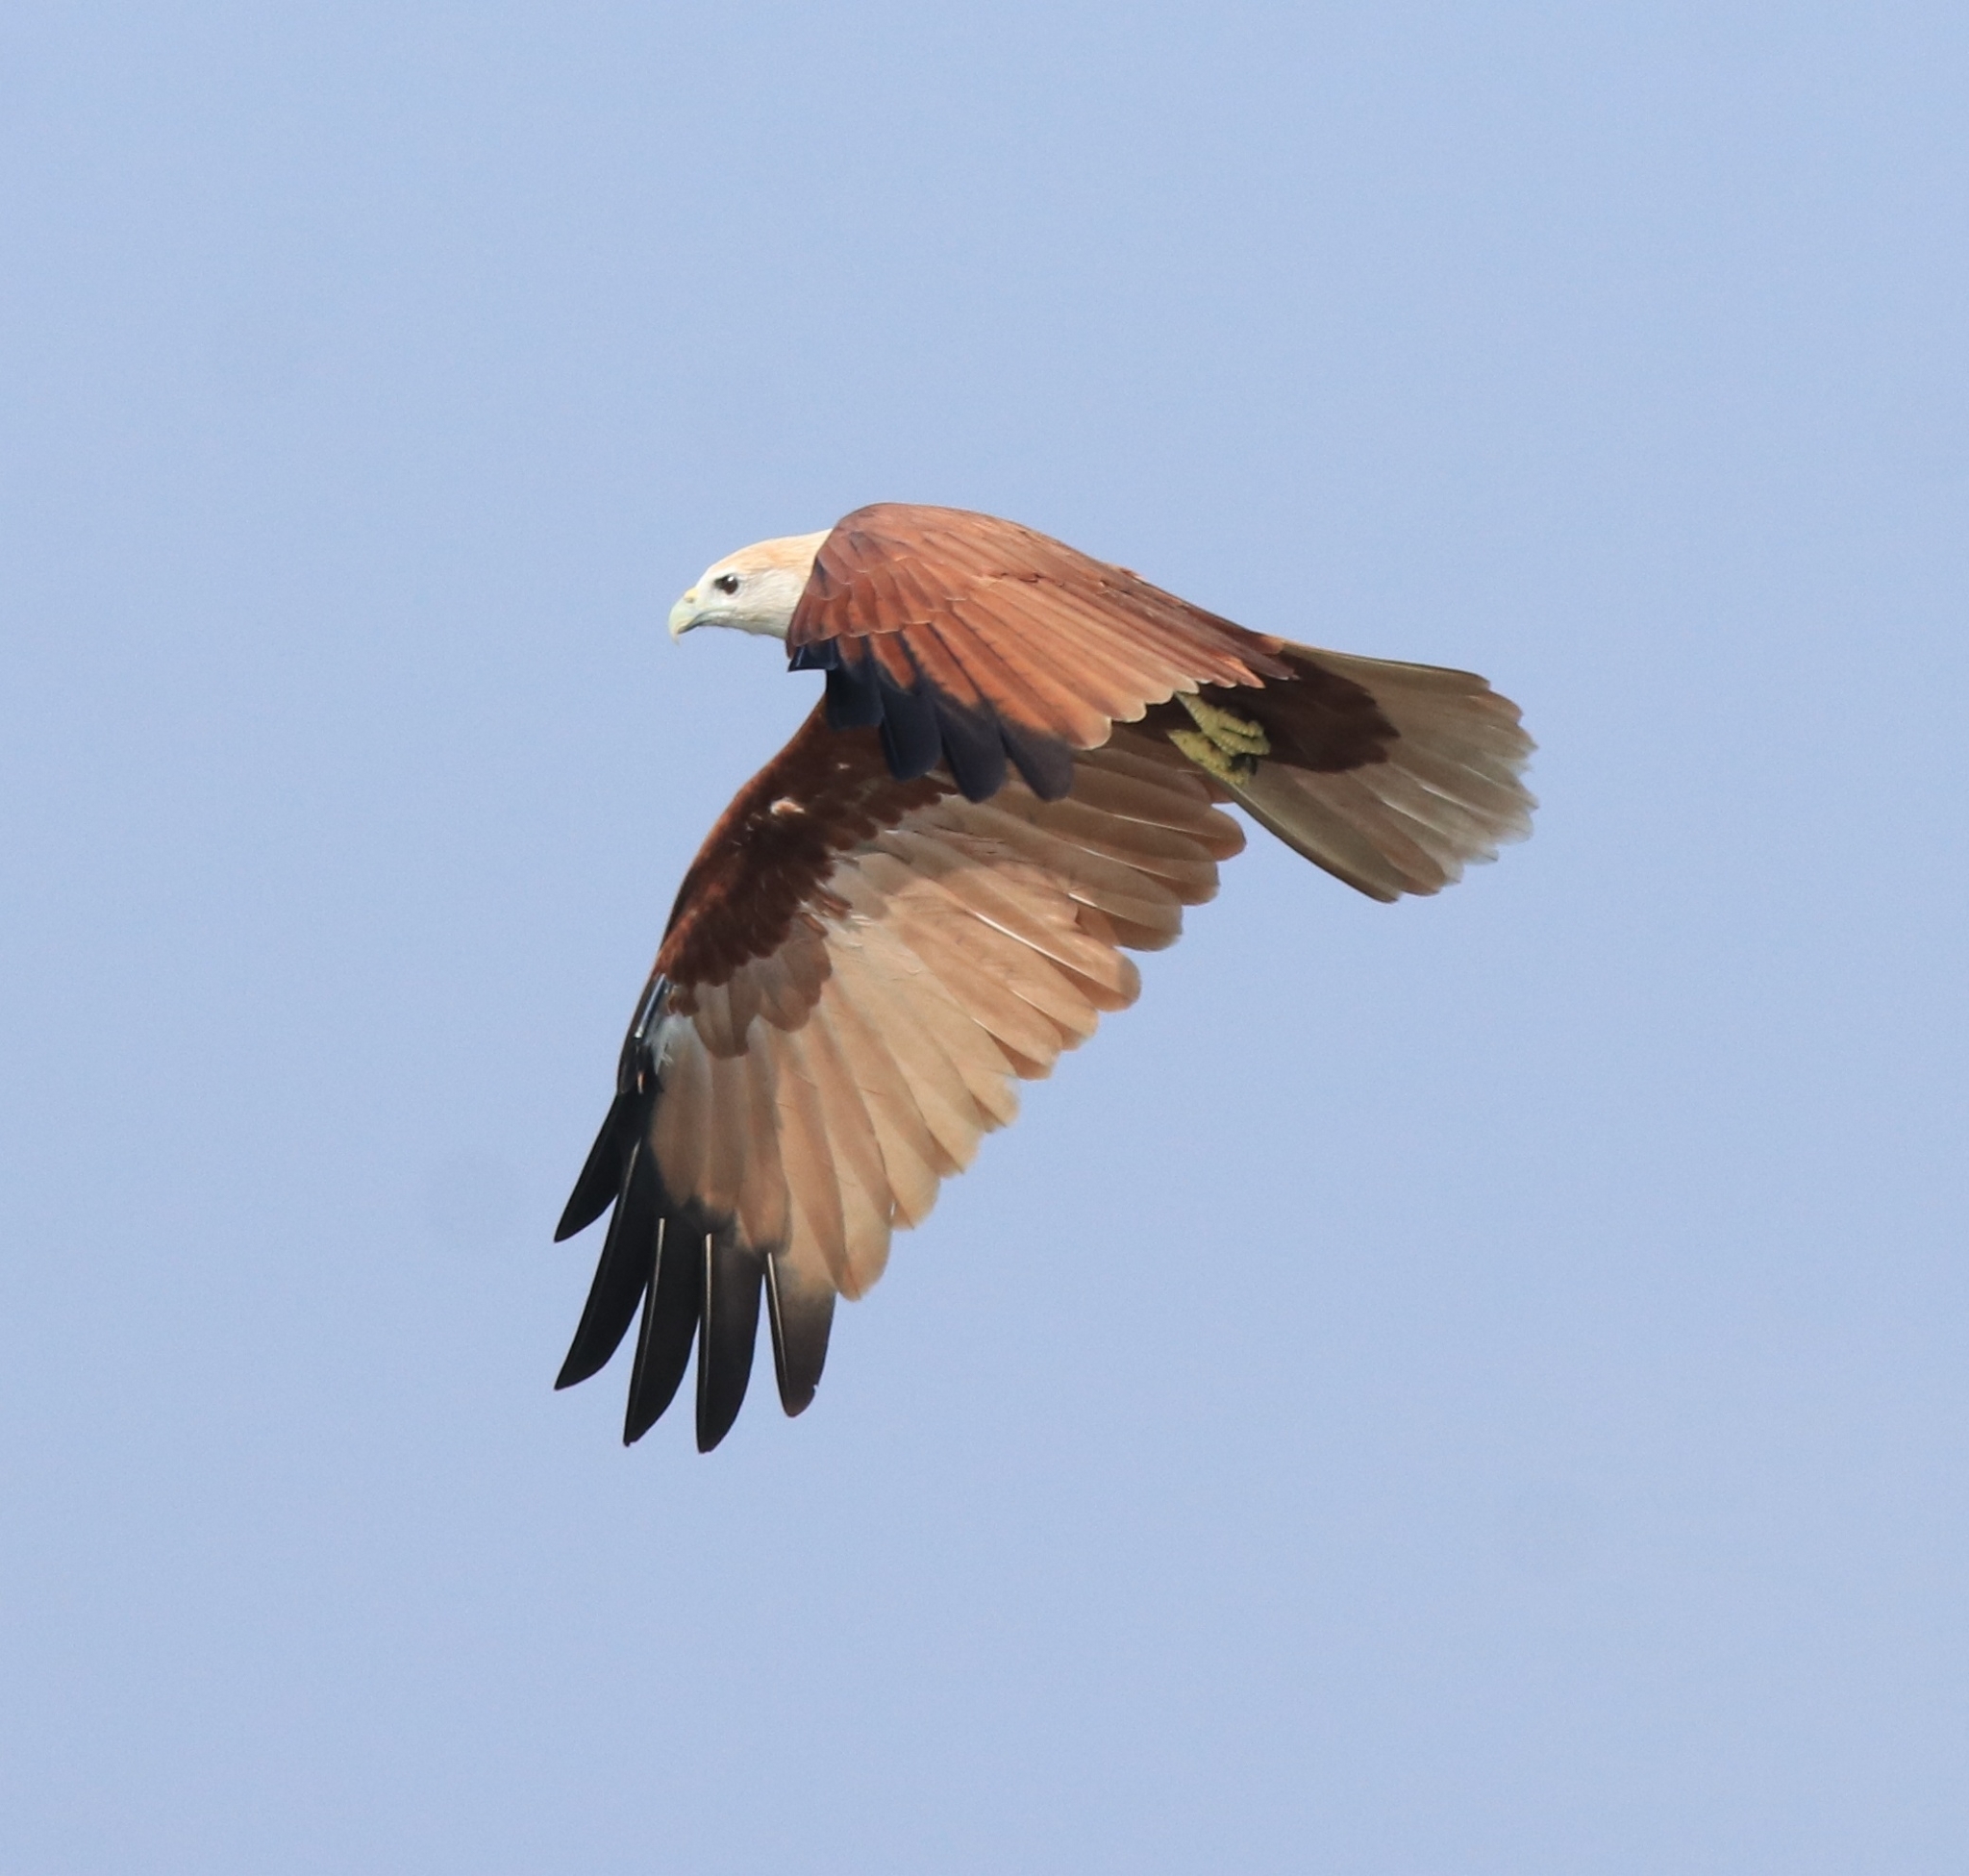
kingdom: Animalia
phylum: Chordata
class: Aves
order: Accipitriformes
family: Accipitridae
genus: Haliastur
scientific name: Haliastur indus
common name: Brahminy kite
